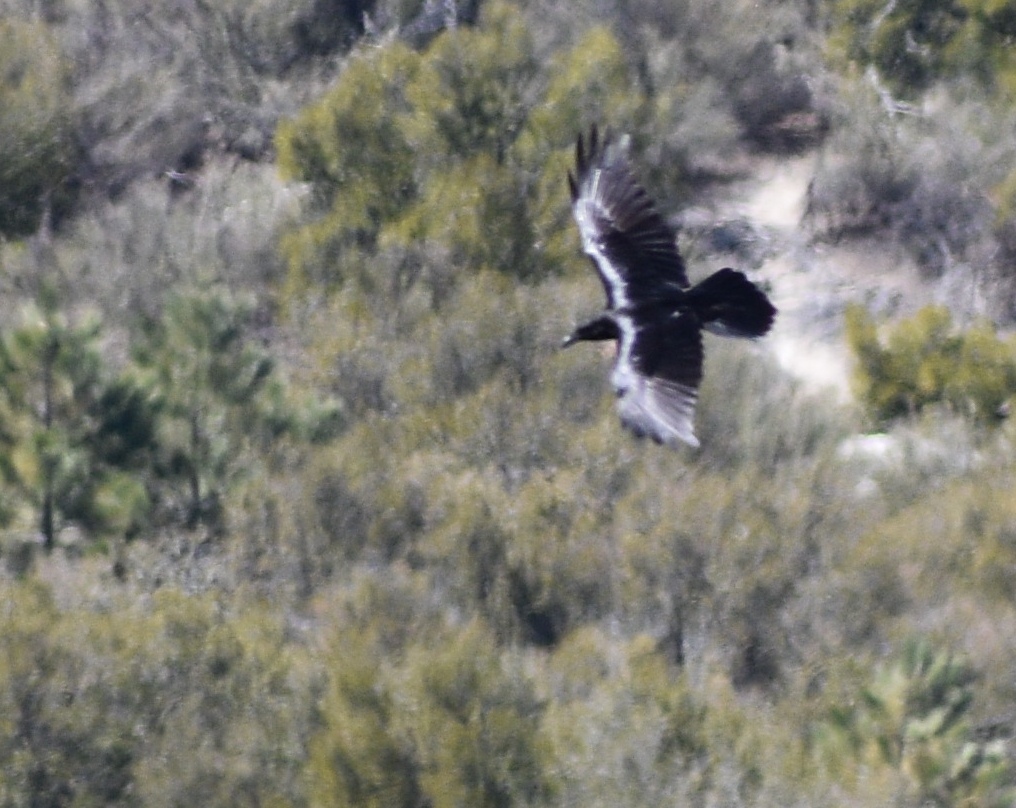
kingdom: Animalia
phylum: Chordata
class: Aves
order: Passeriformes
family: Corvidae
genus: Corvus
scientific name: Corvus corax
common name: Common raven
